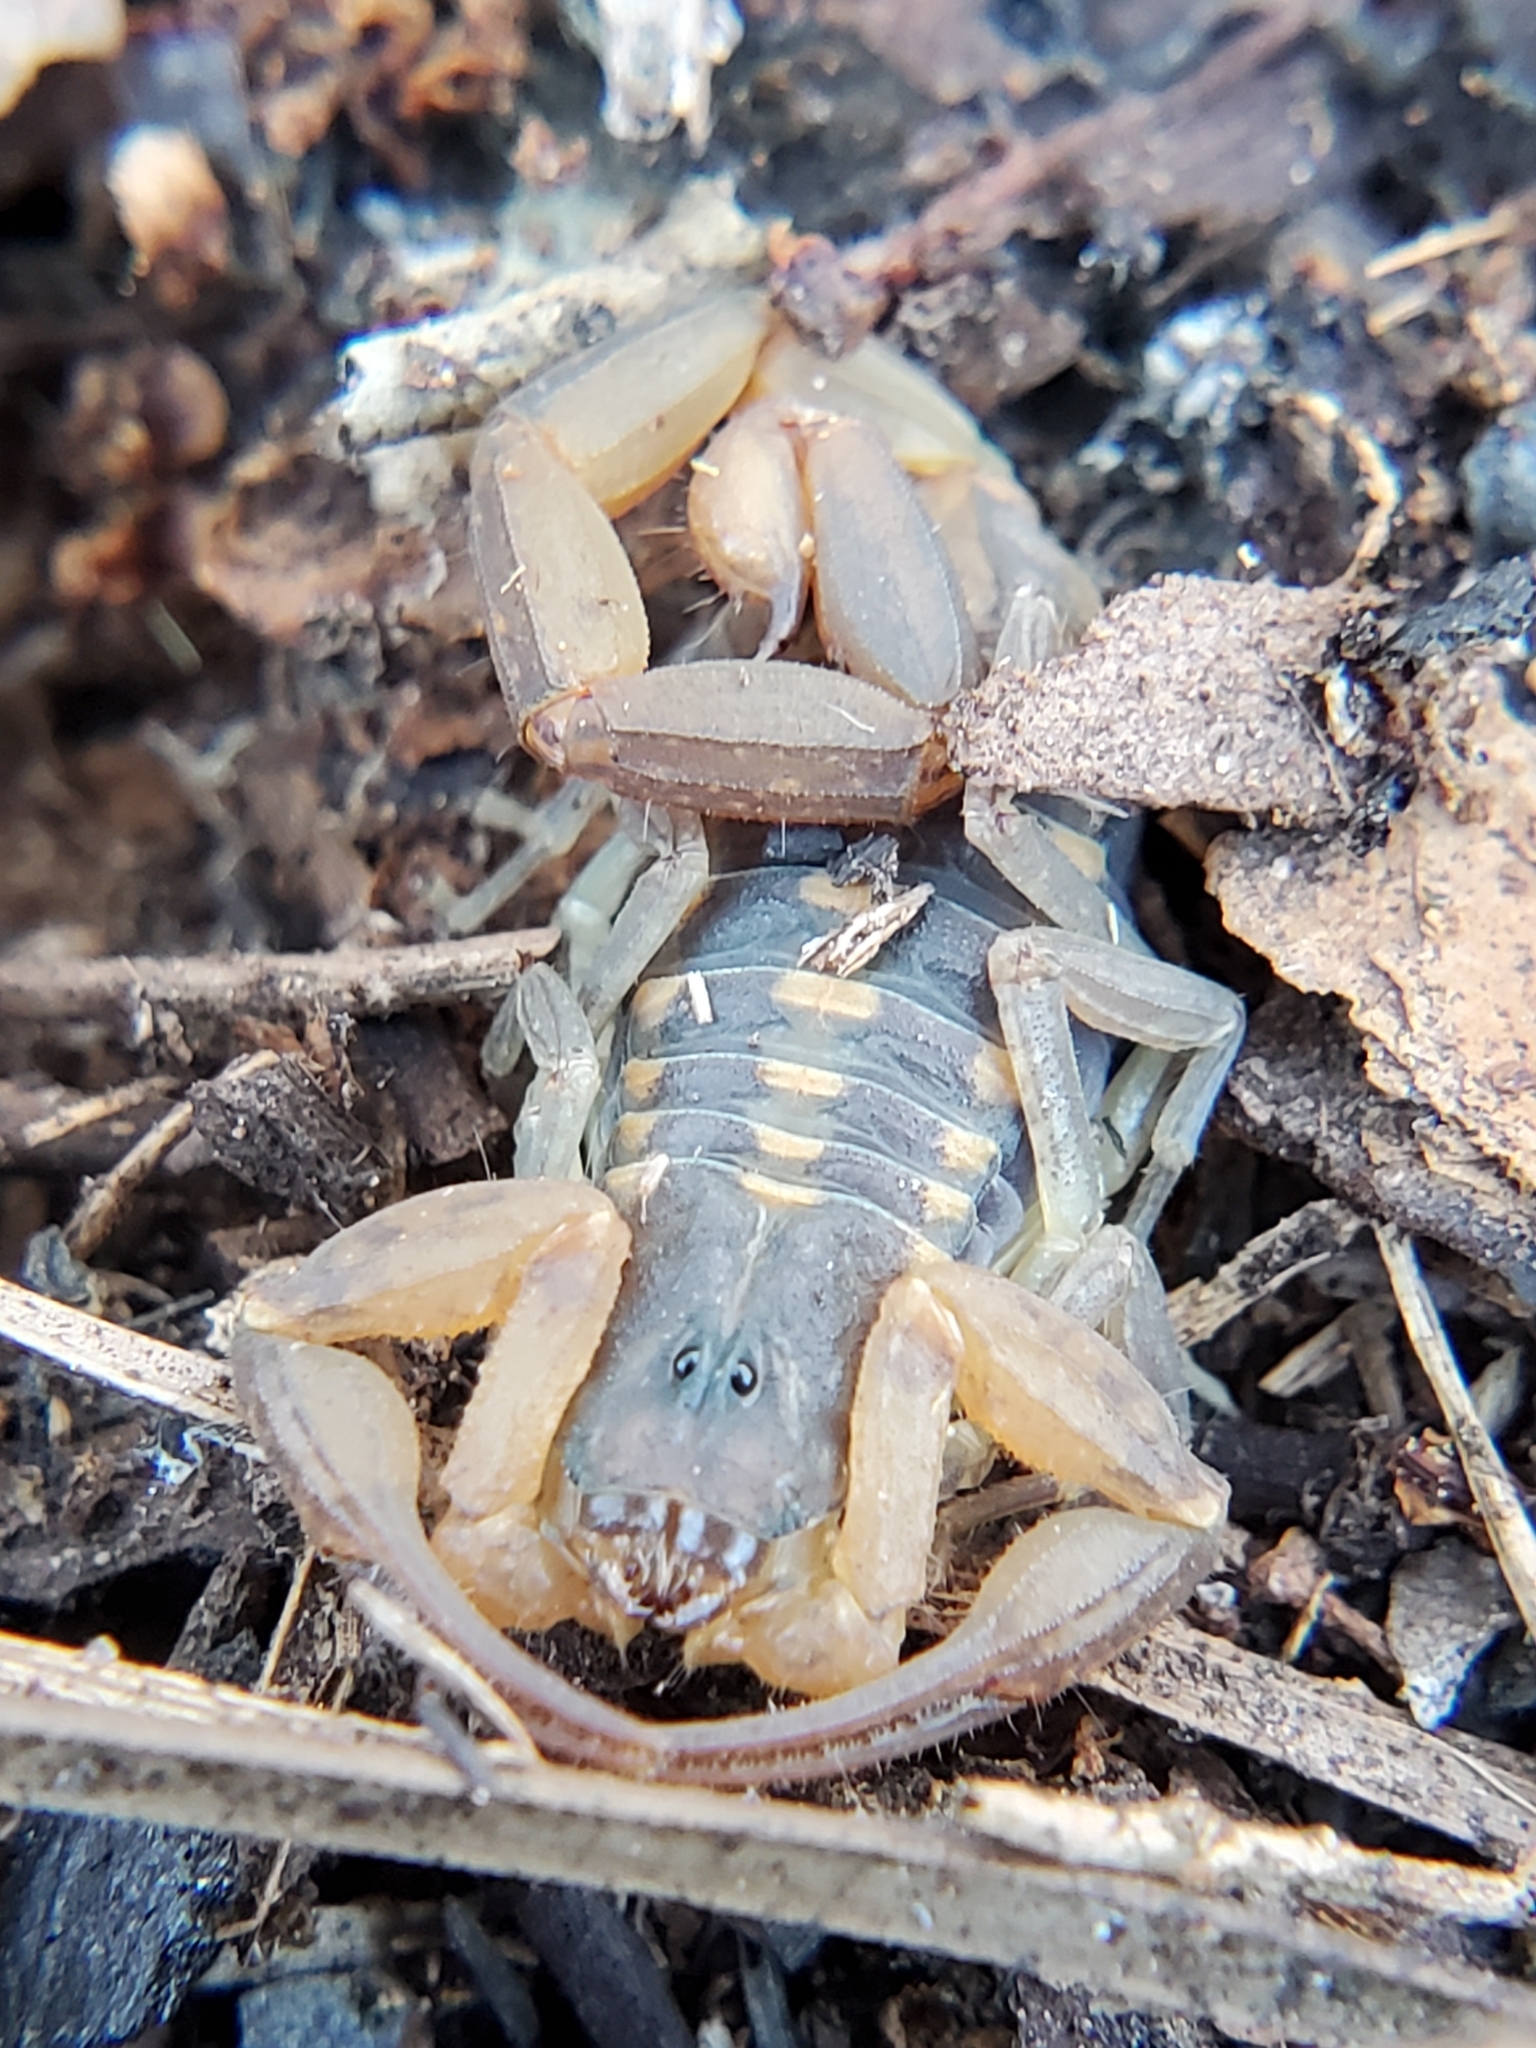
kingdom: Animalia
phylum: Arthropoda
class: Arachnida
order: Scorpiones
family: Buthidae
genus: Centruroides
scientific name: Centruroides hentzi
